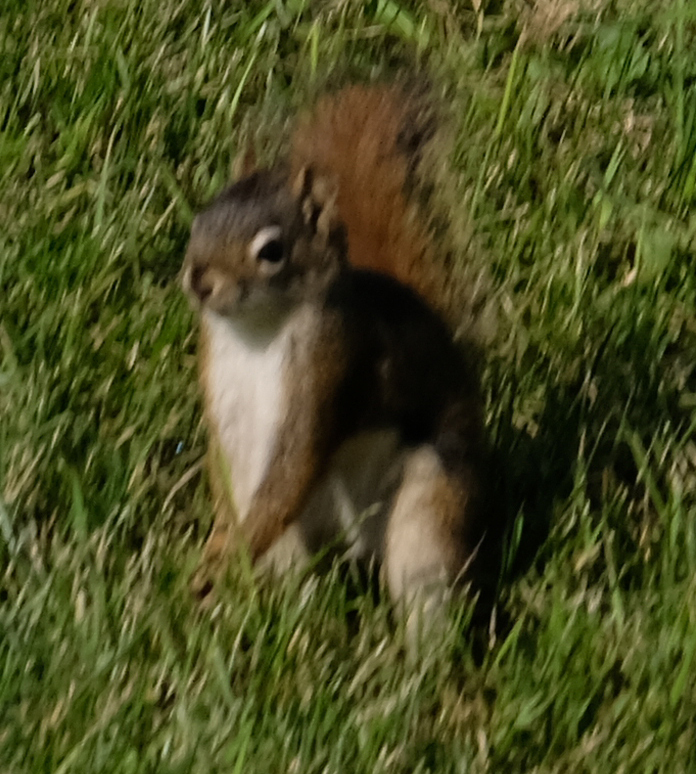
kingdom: Animalia
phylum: Chordata
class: Mammalia
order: Rodentia
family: Sciuridae
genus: Tamiasciurus
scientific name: Tamiasciurus hudsonicus
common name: Red squirrel
